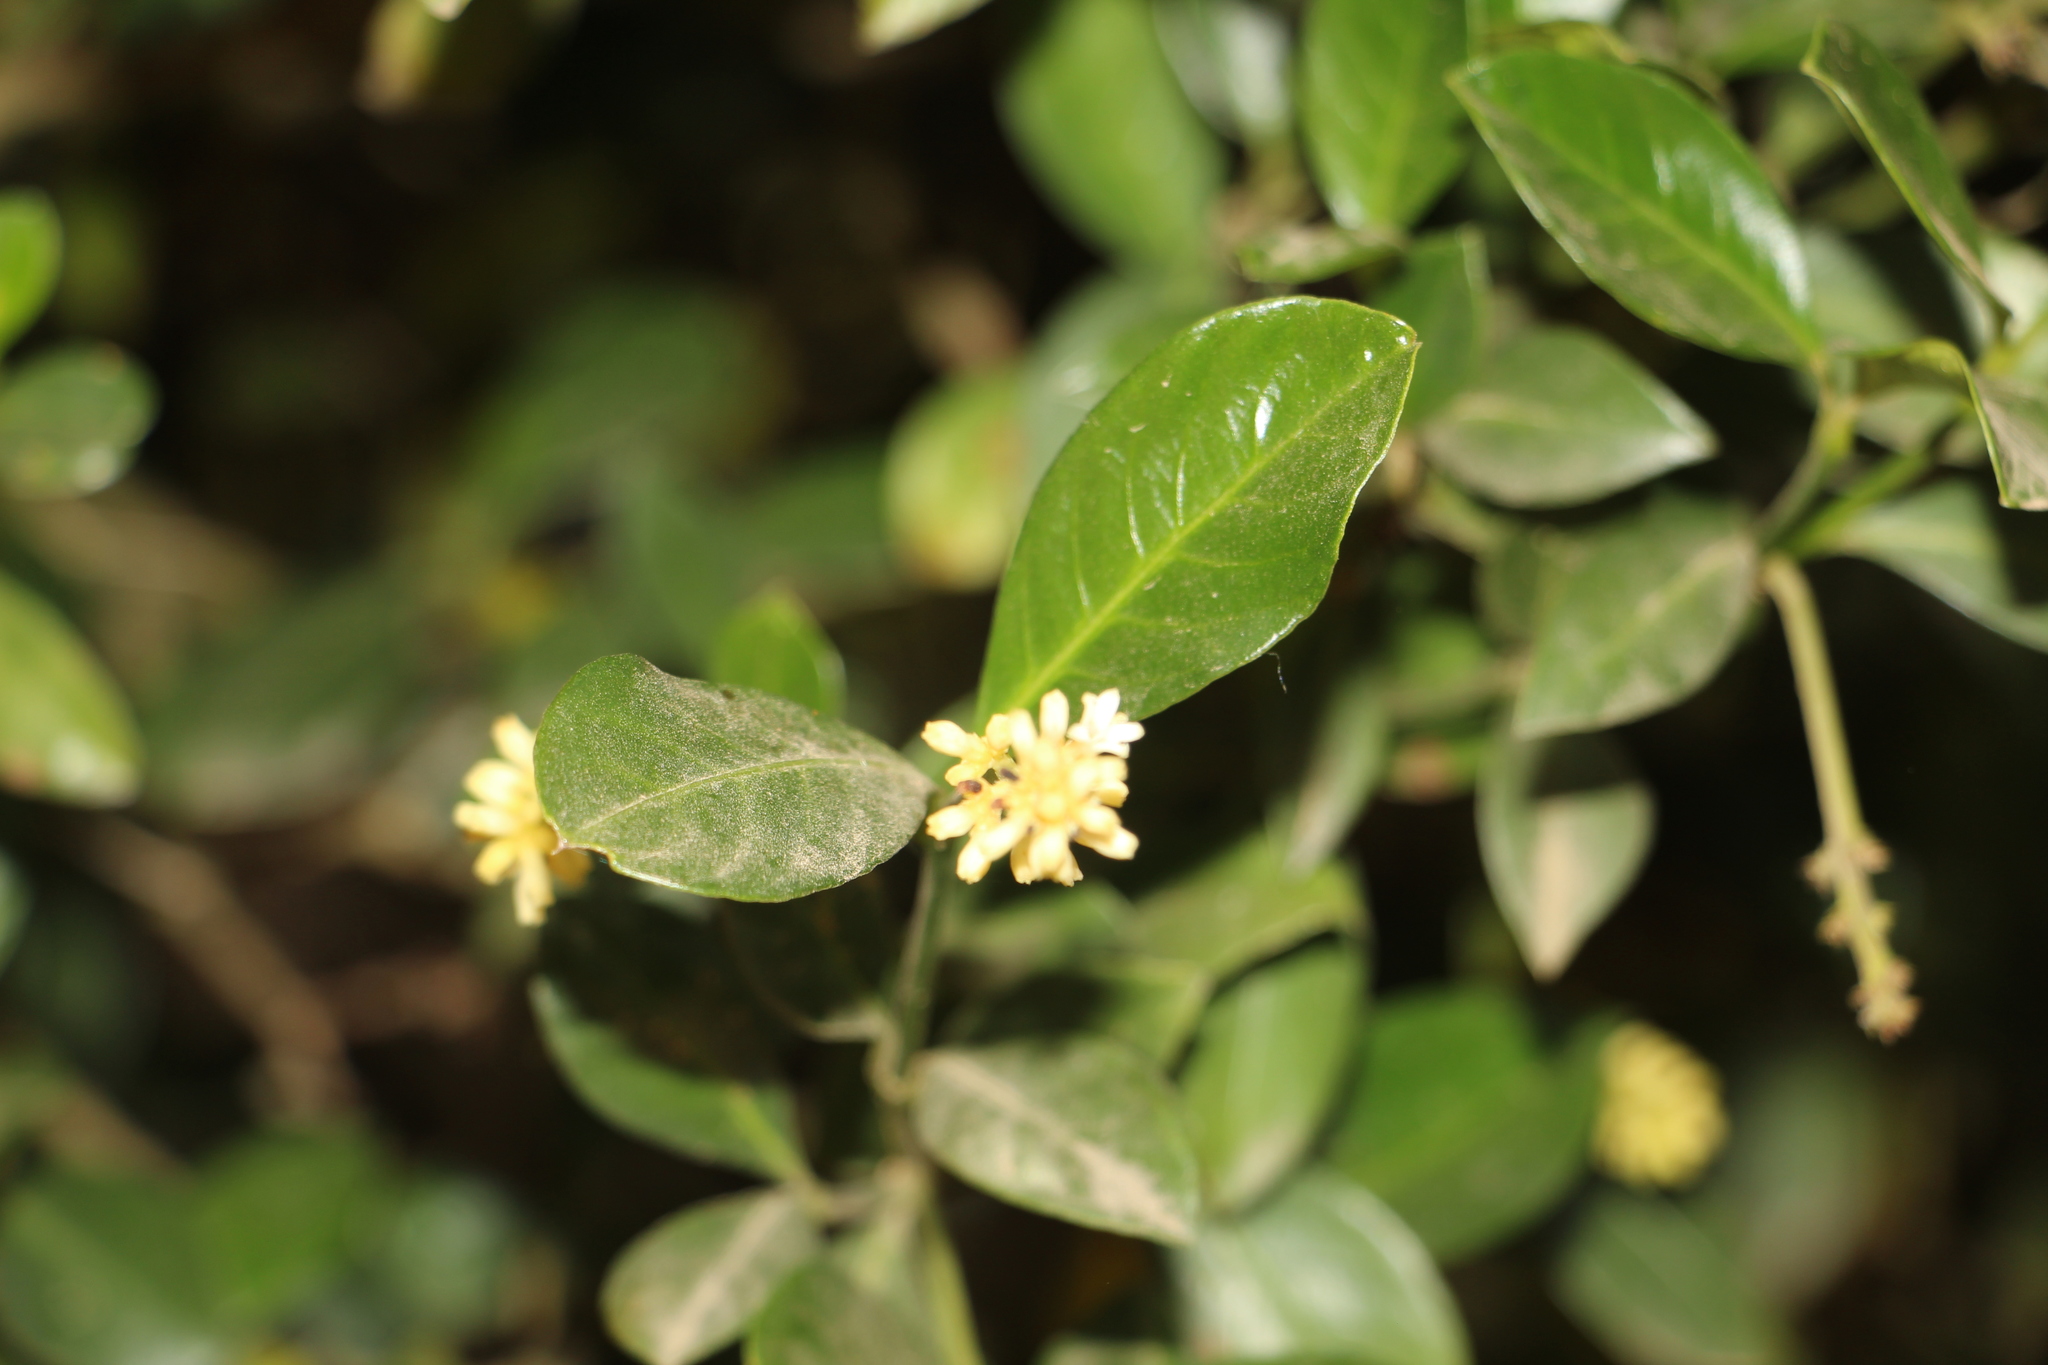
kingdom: Plantae
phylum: Tracheophyta
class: Magnoliopsida
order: Gentianales
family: Rubiaceae
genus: Palicourea
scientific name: Palicourea boqueronensis
